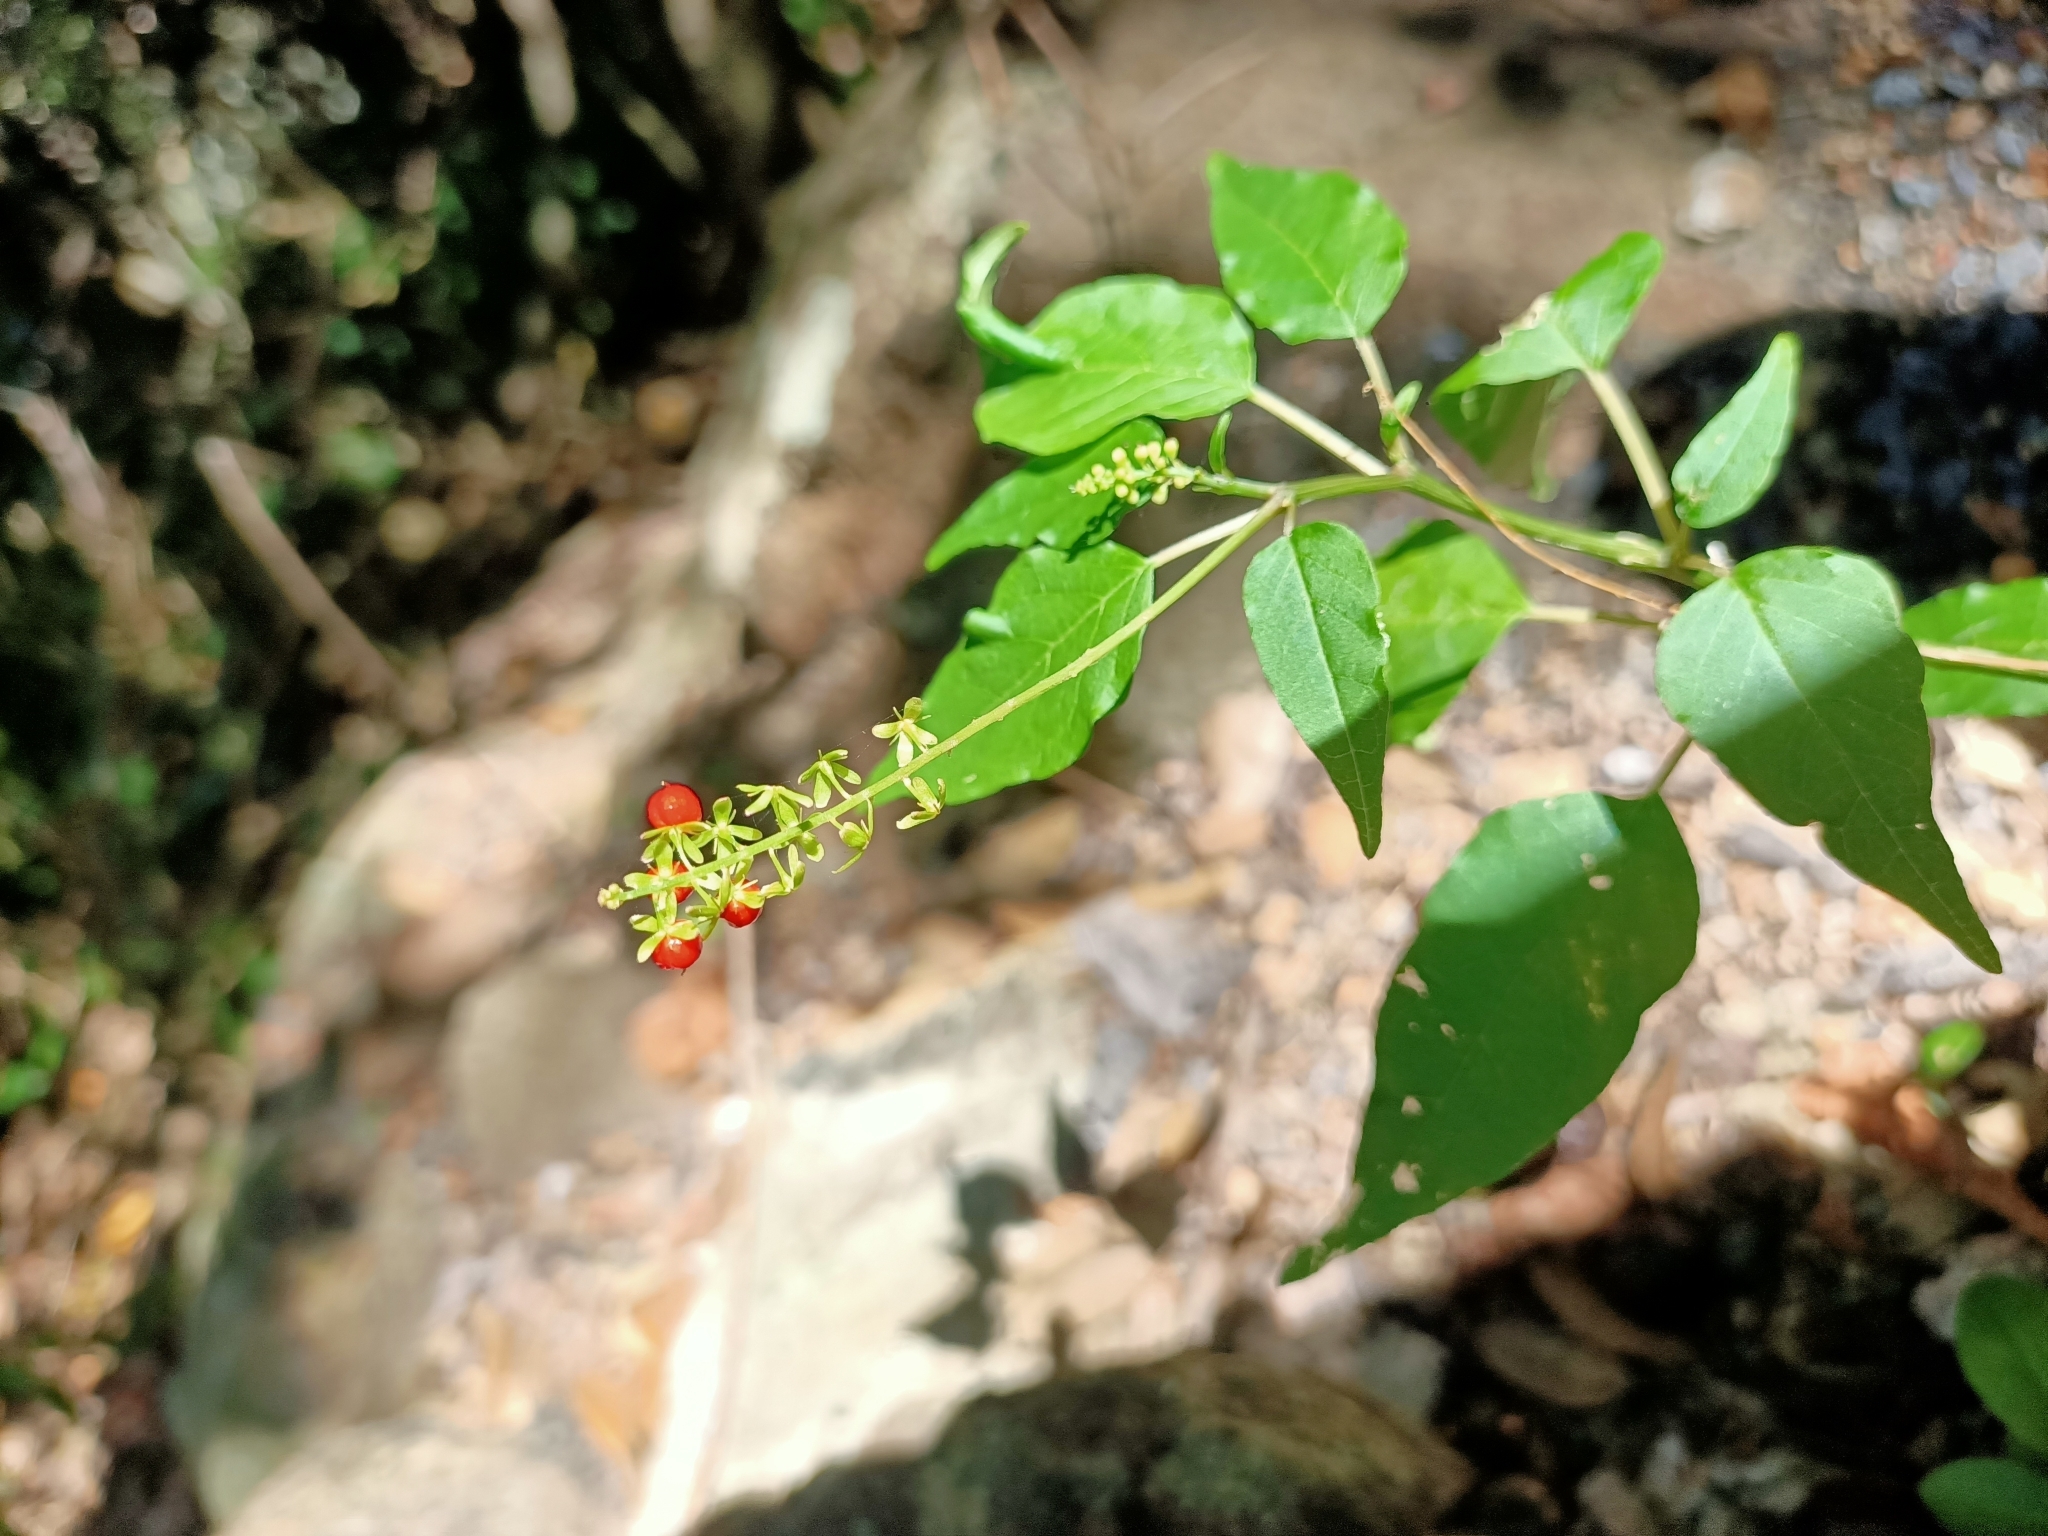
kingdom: Plantae
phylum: Tracheophyta
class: Magnoliopsida
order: Caryophyllales
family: Phytolaccaceae
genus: Rivina
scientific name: Rivina humilis
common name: Rougeplant
